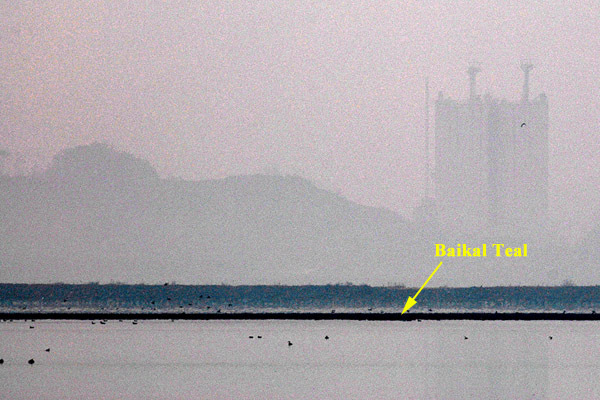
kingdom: Animalia
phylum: Chordata
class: Aves
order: Anseriformes
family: Anatidae
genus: Sibirionetta
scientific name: Sibirionetta formosa
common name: Baikal teal
